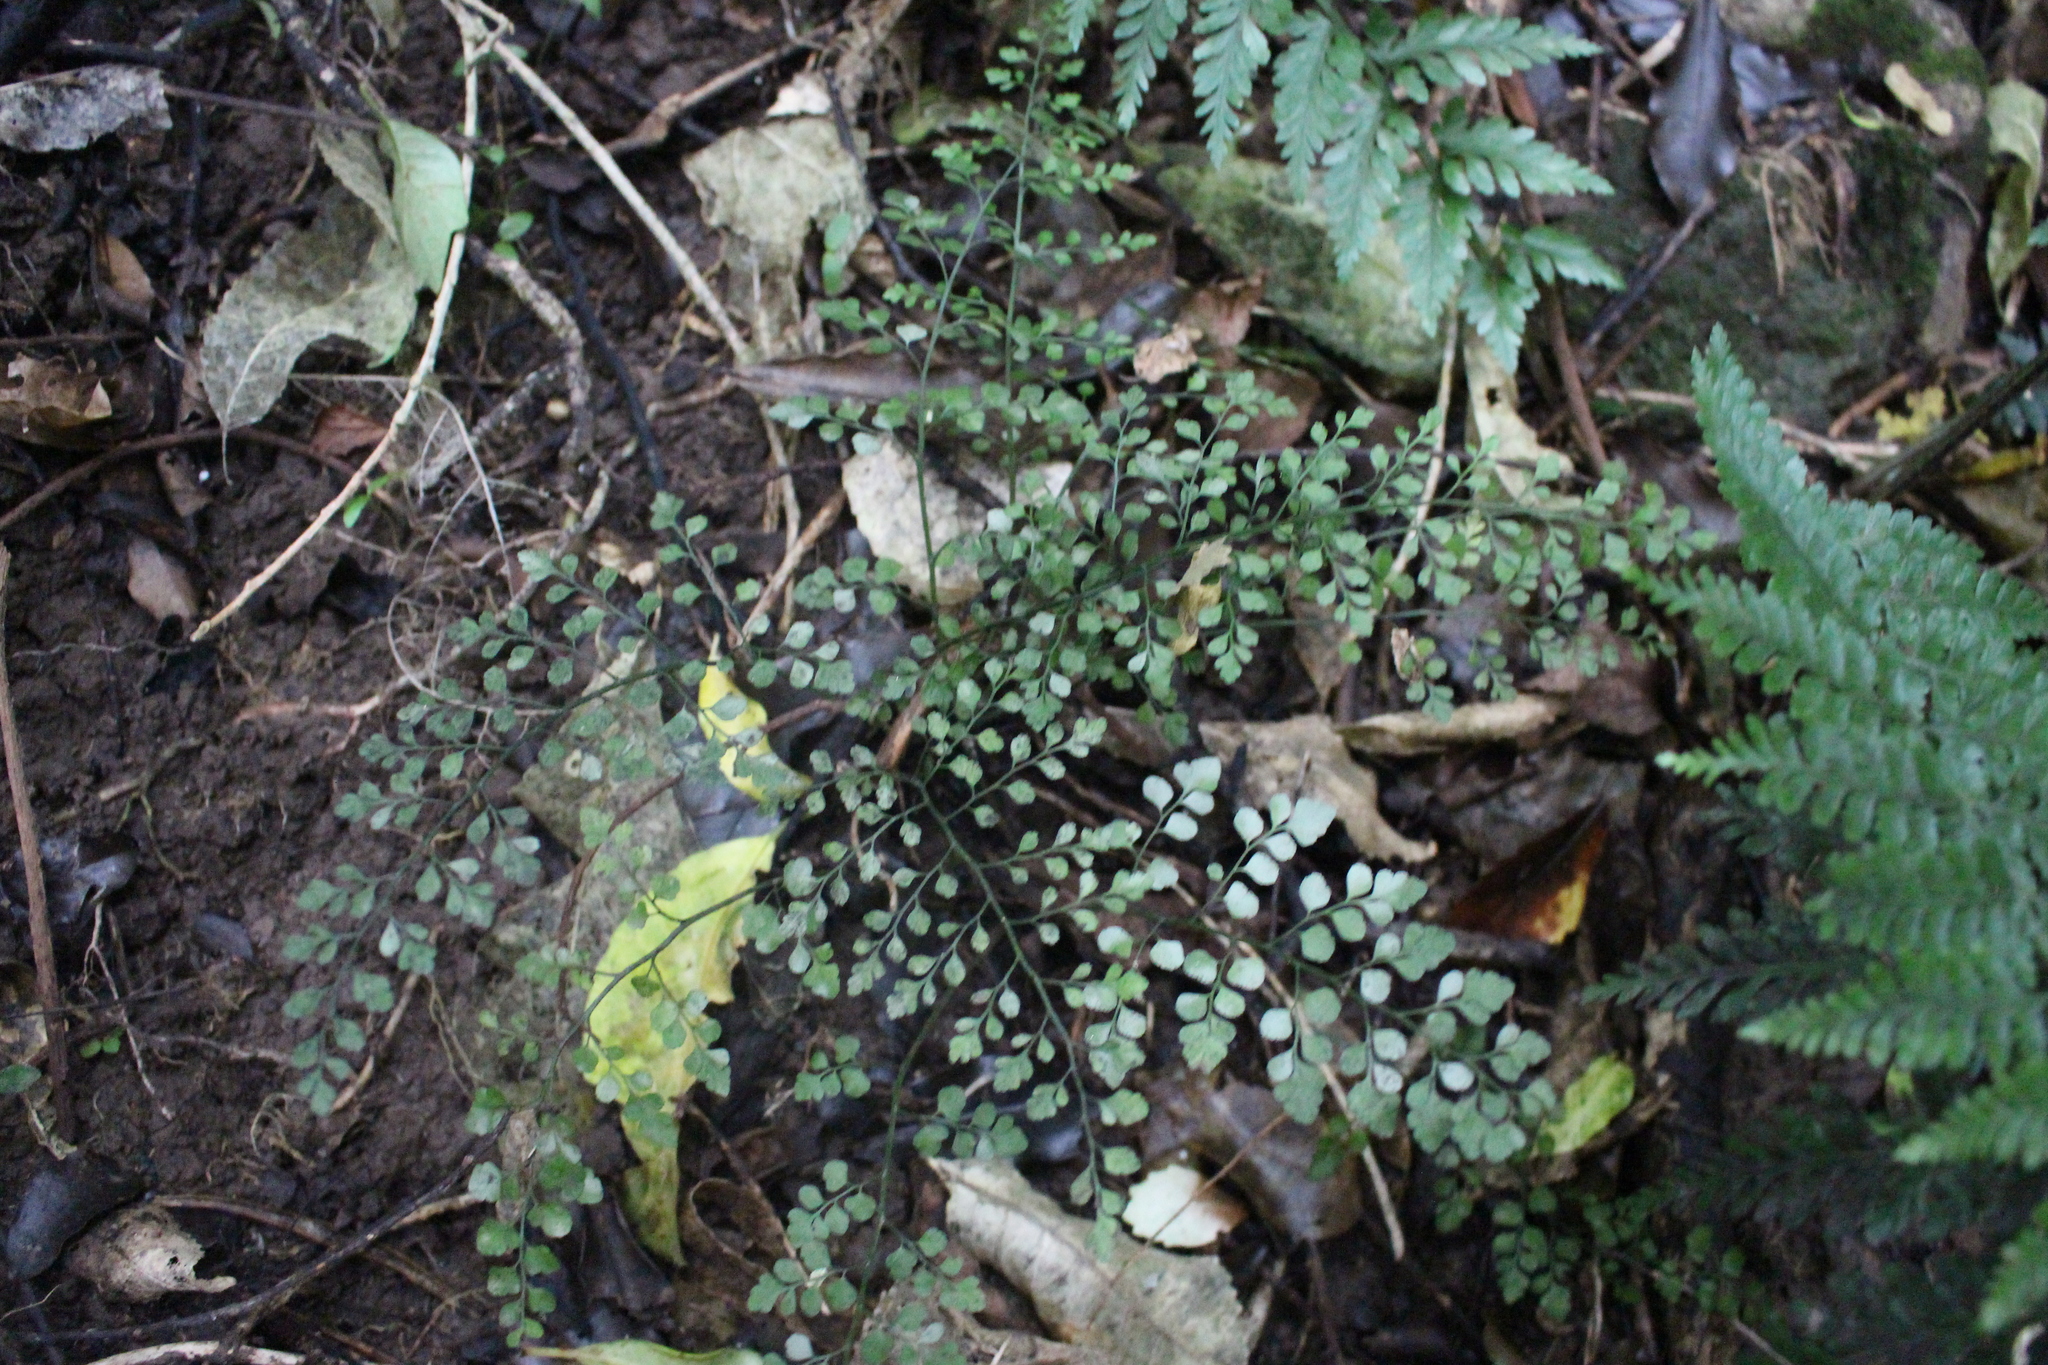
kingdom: Plantae
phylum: Tracheophyta
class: Polypodiopsida
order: Polypodiales
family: Aspleniaceae
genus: Asplenium
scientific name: Asplenium hookerianum
